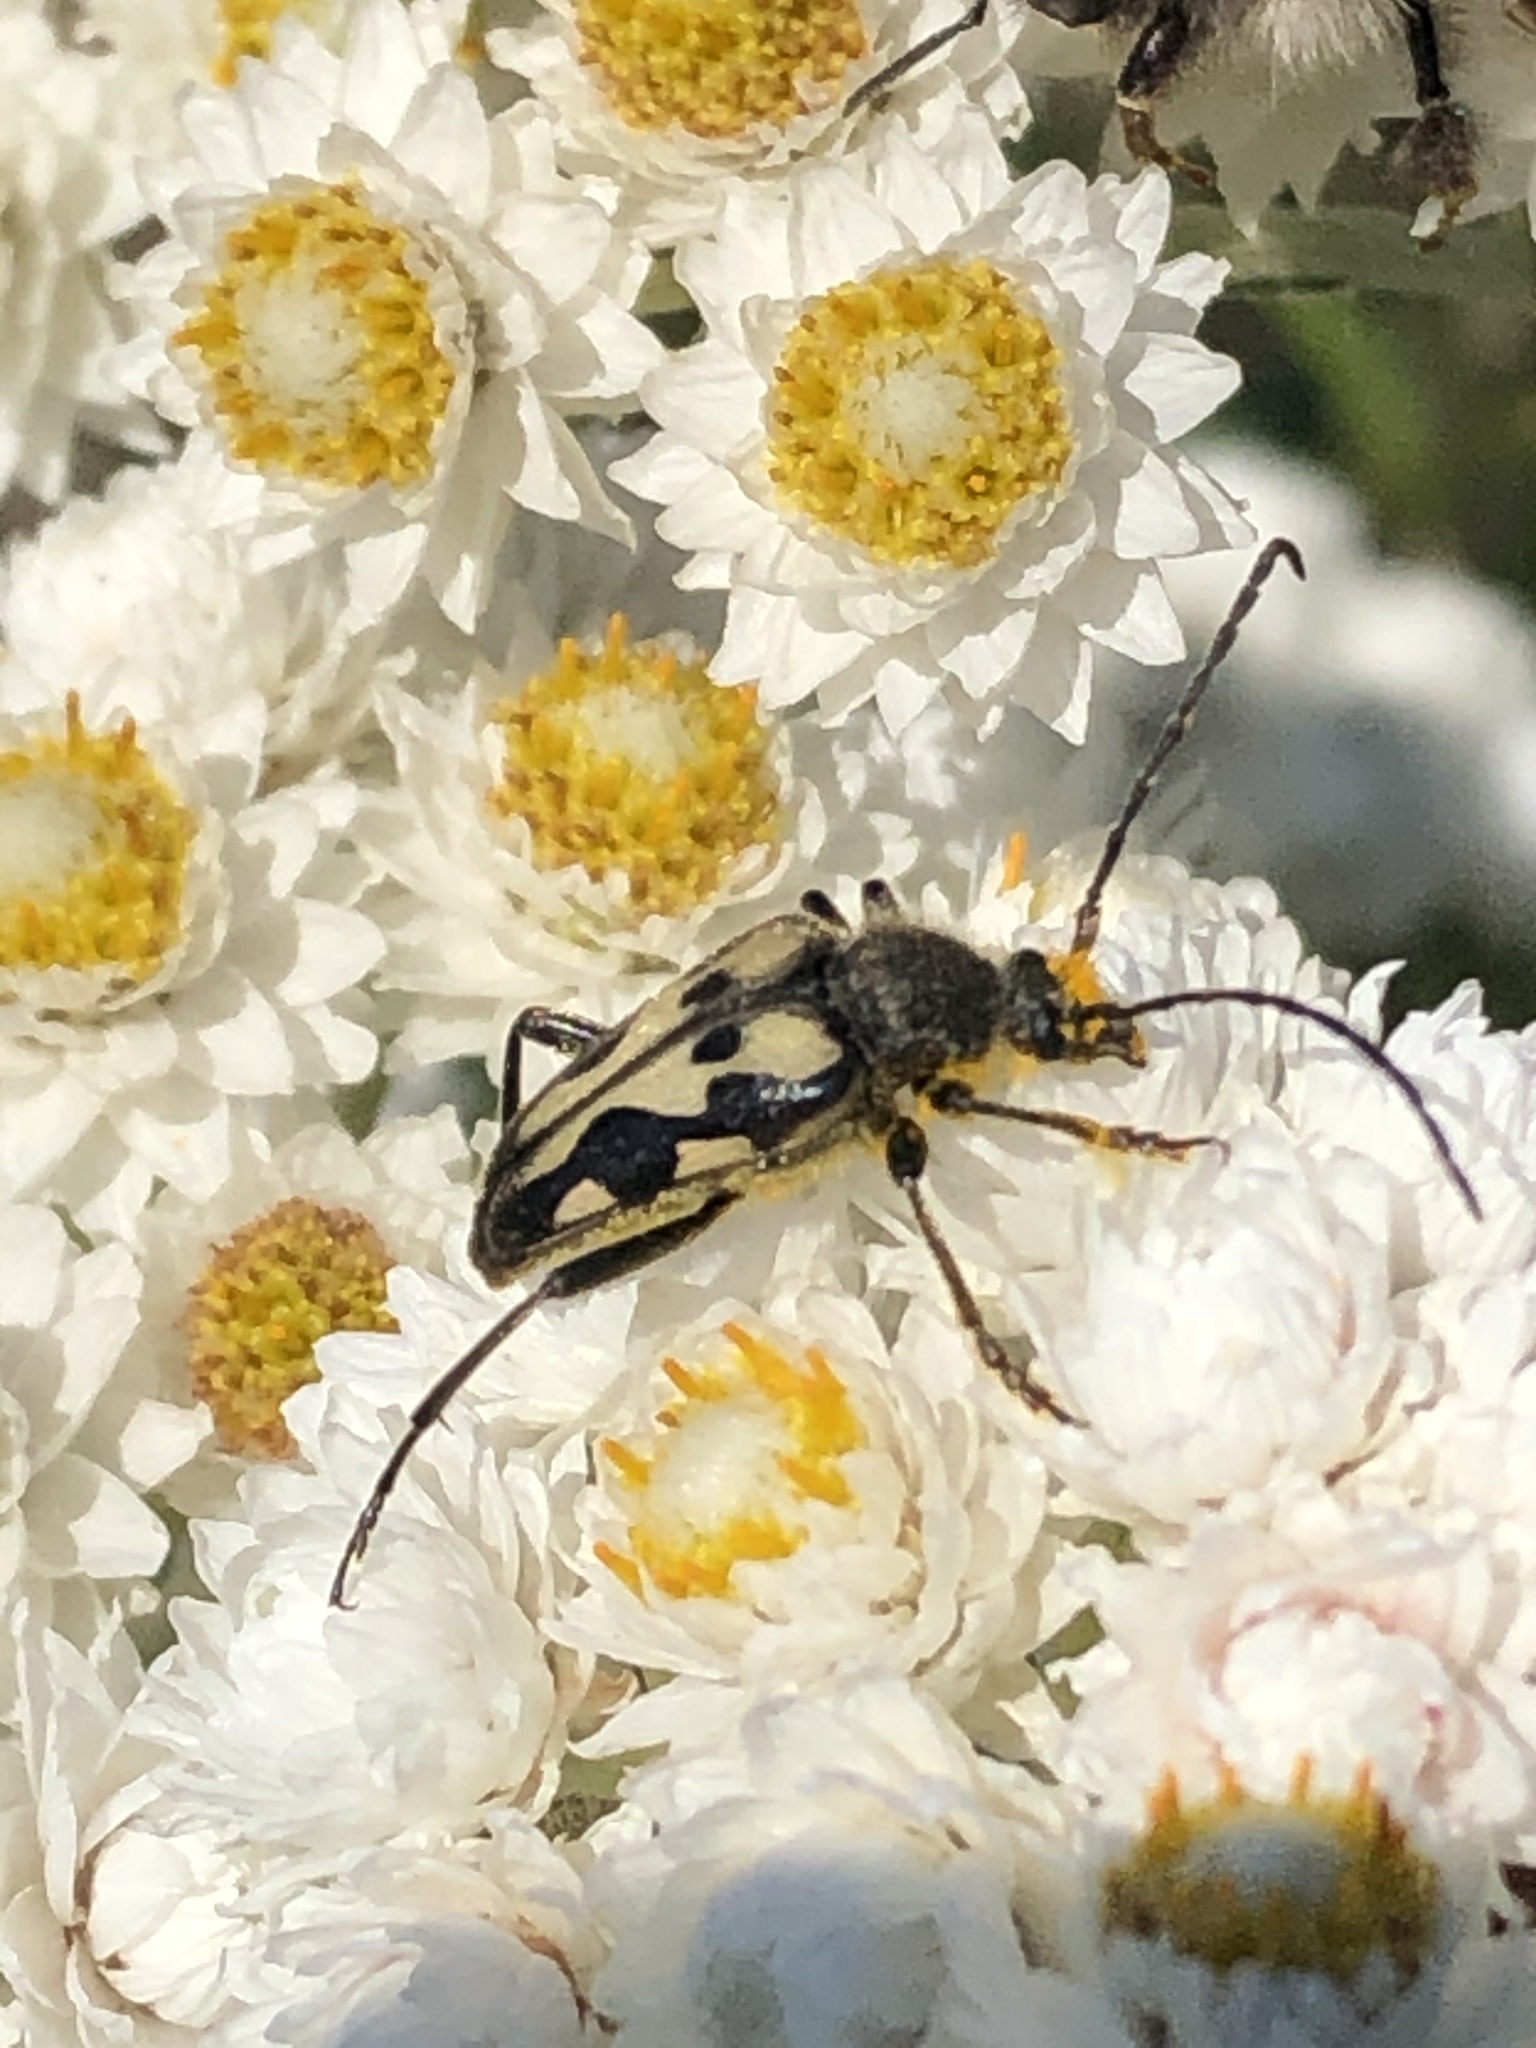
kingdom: Animalia
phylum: Arthropoda
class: Insecta
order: Coleoptera
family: Cerambycidae
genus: Judolia
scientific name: Judolia instabilis
